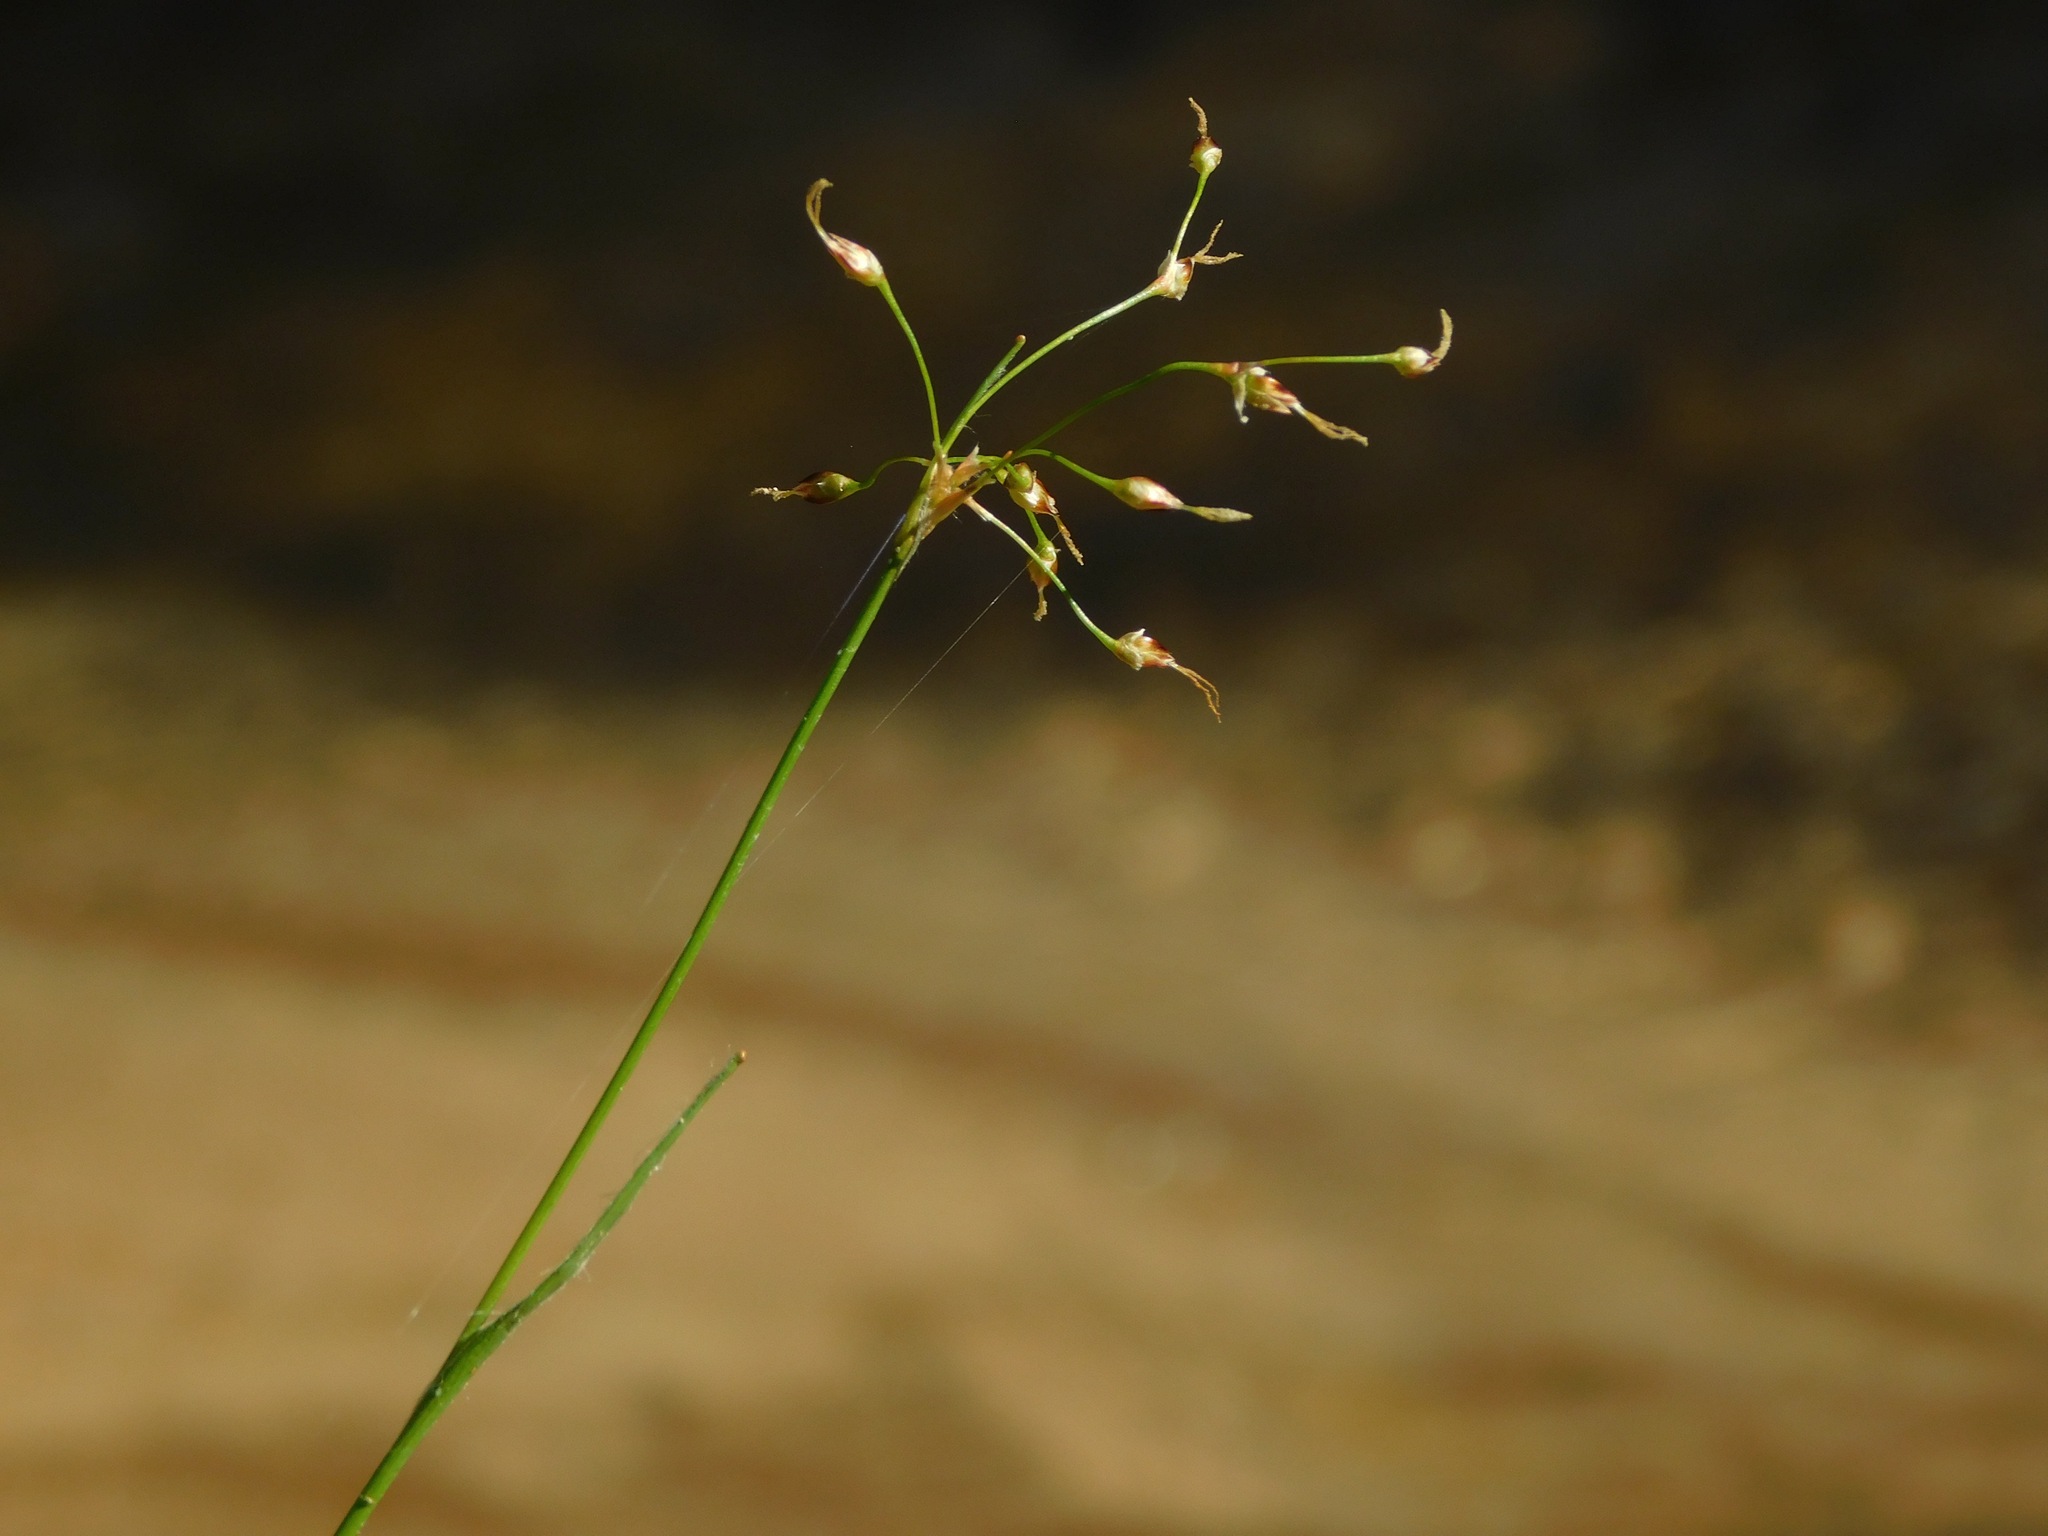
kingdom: Plantae
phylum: Tracheophyta
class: Liliopsida
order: Poales
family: Juncaceae
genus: Luzula
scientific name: Luzula acuminata
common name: Hairy woodrush
